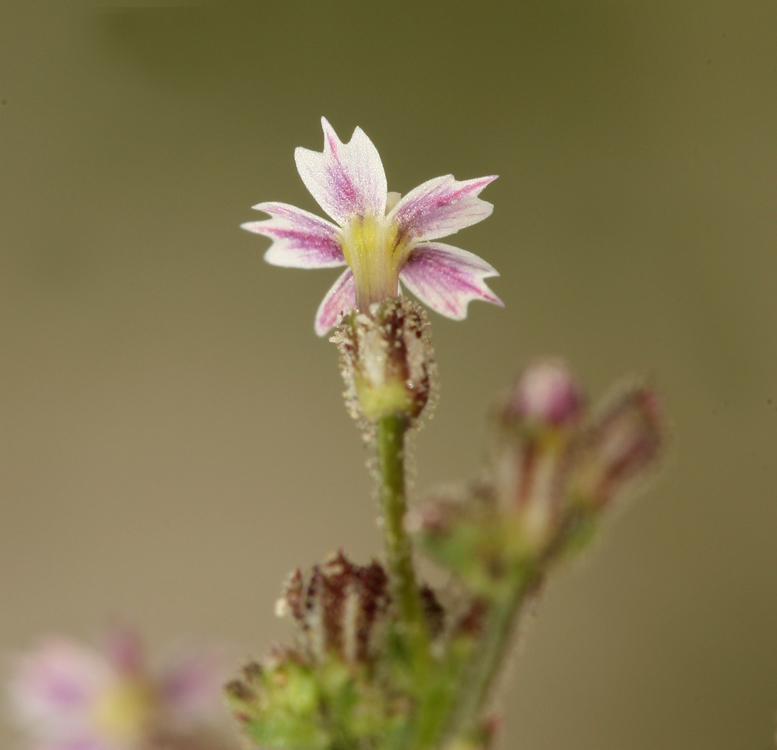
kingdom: Plantae
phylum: Tracheophyta
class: Magnoliopsida
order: Ericales
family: Polemoniaceae
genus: Aliciella
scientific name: Aliciella triodon
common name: Coyote gilia
